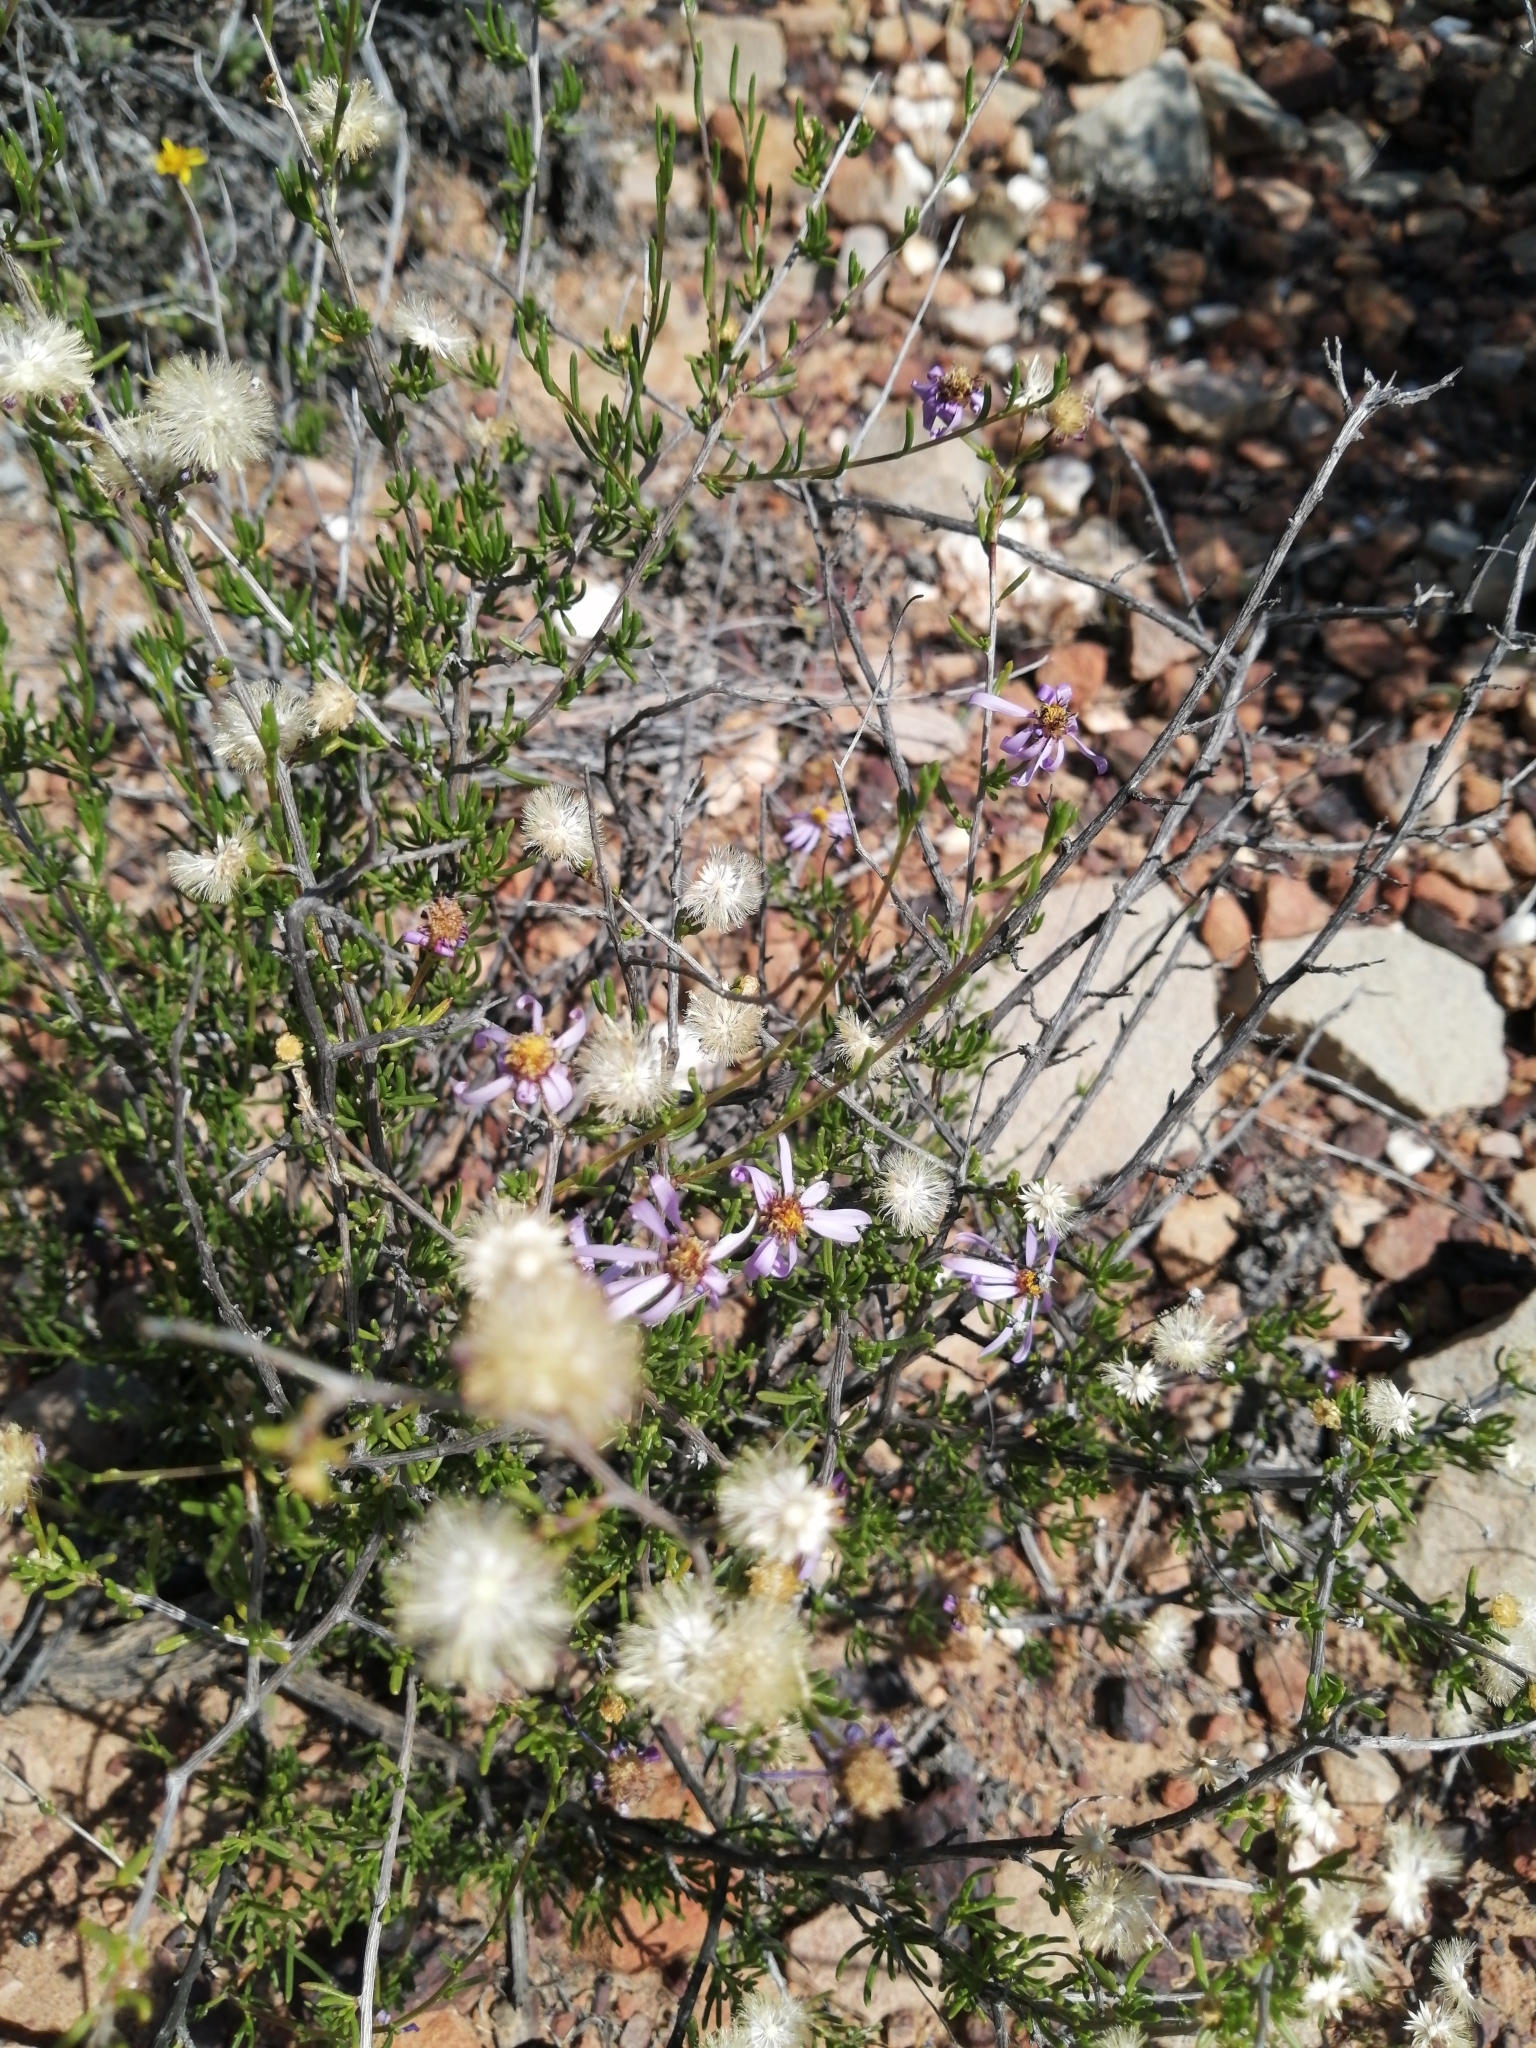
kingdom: Plantae
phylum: Tracheophyta
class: Magnoliopsida
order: Asterales
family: Asteraceae
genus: Felicia
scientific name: Felicia filifolia
